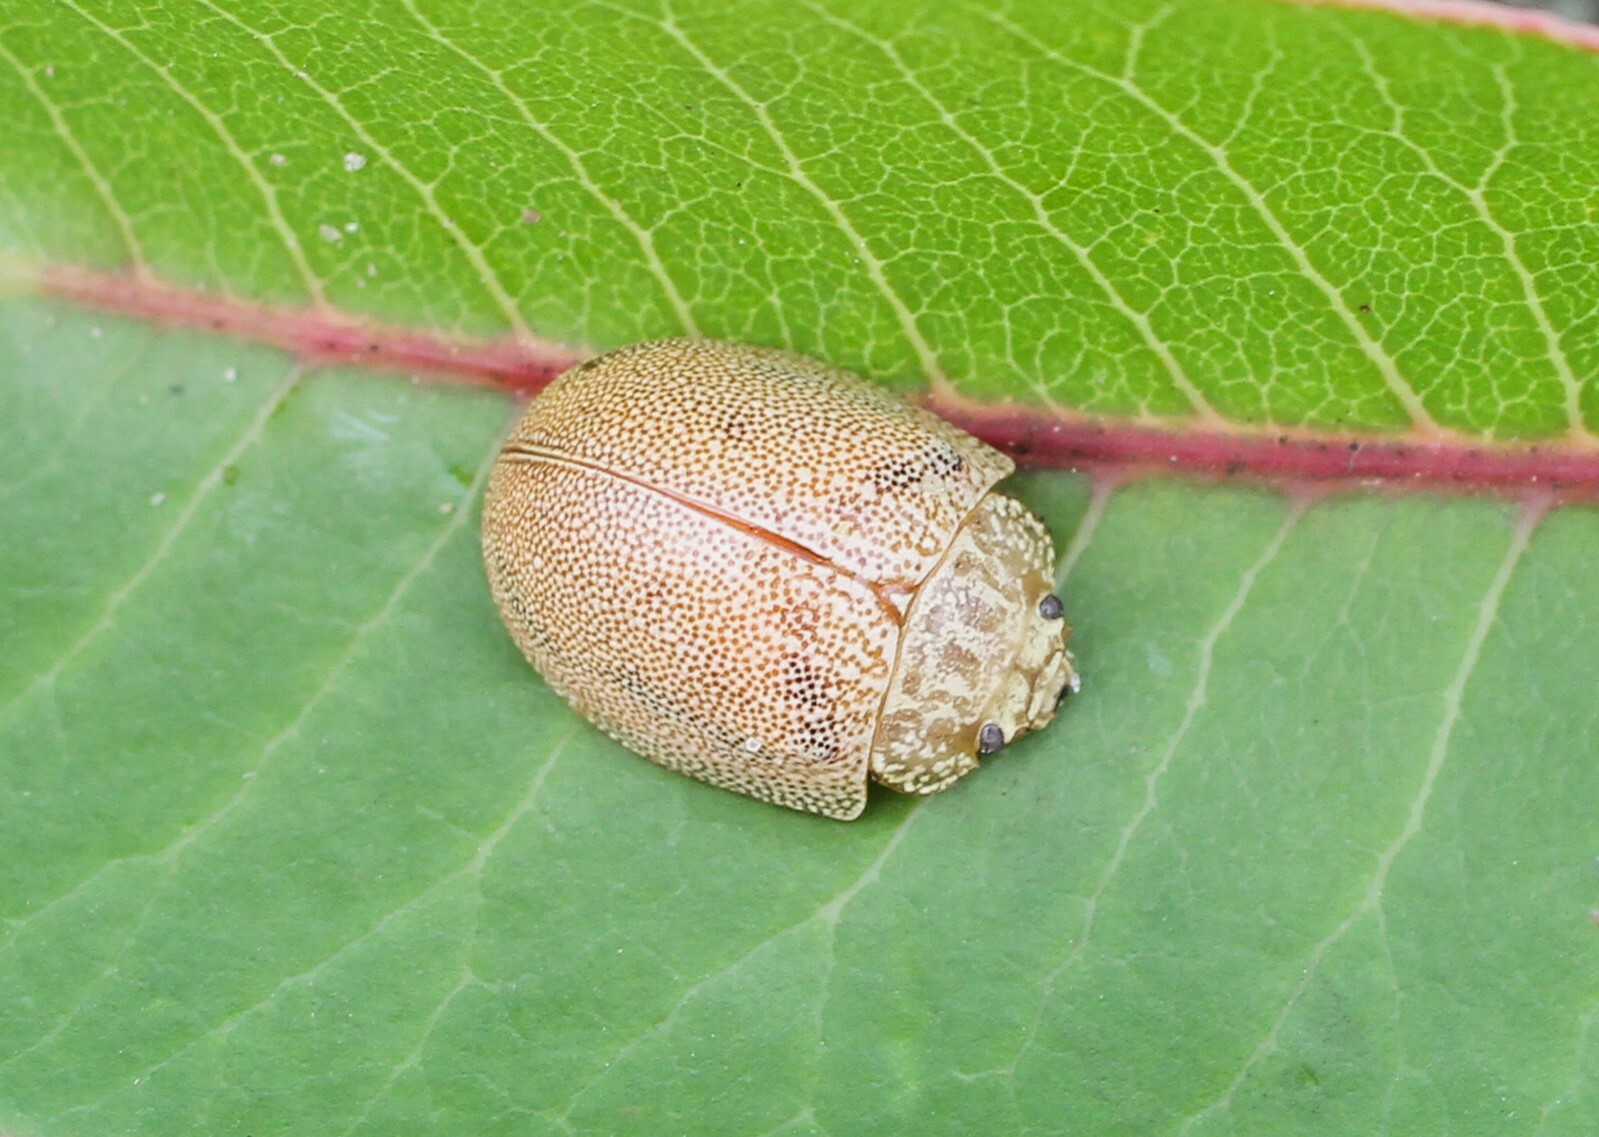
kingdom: Animalia
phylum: Arthropoda
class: Insecta
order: Coleoptera
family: Chrysomelidae
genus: Paropsis
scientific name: Paropsis
